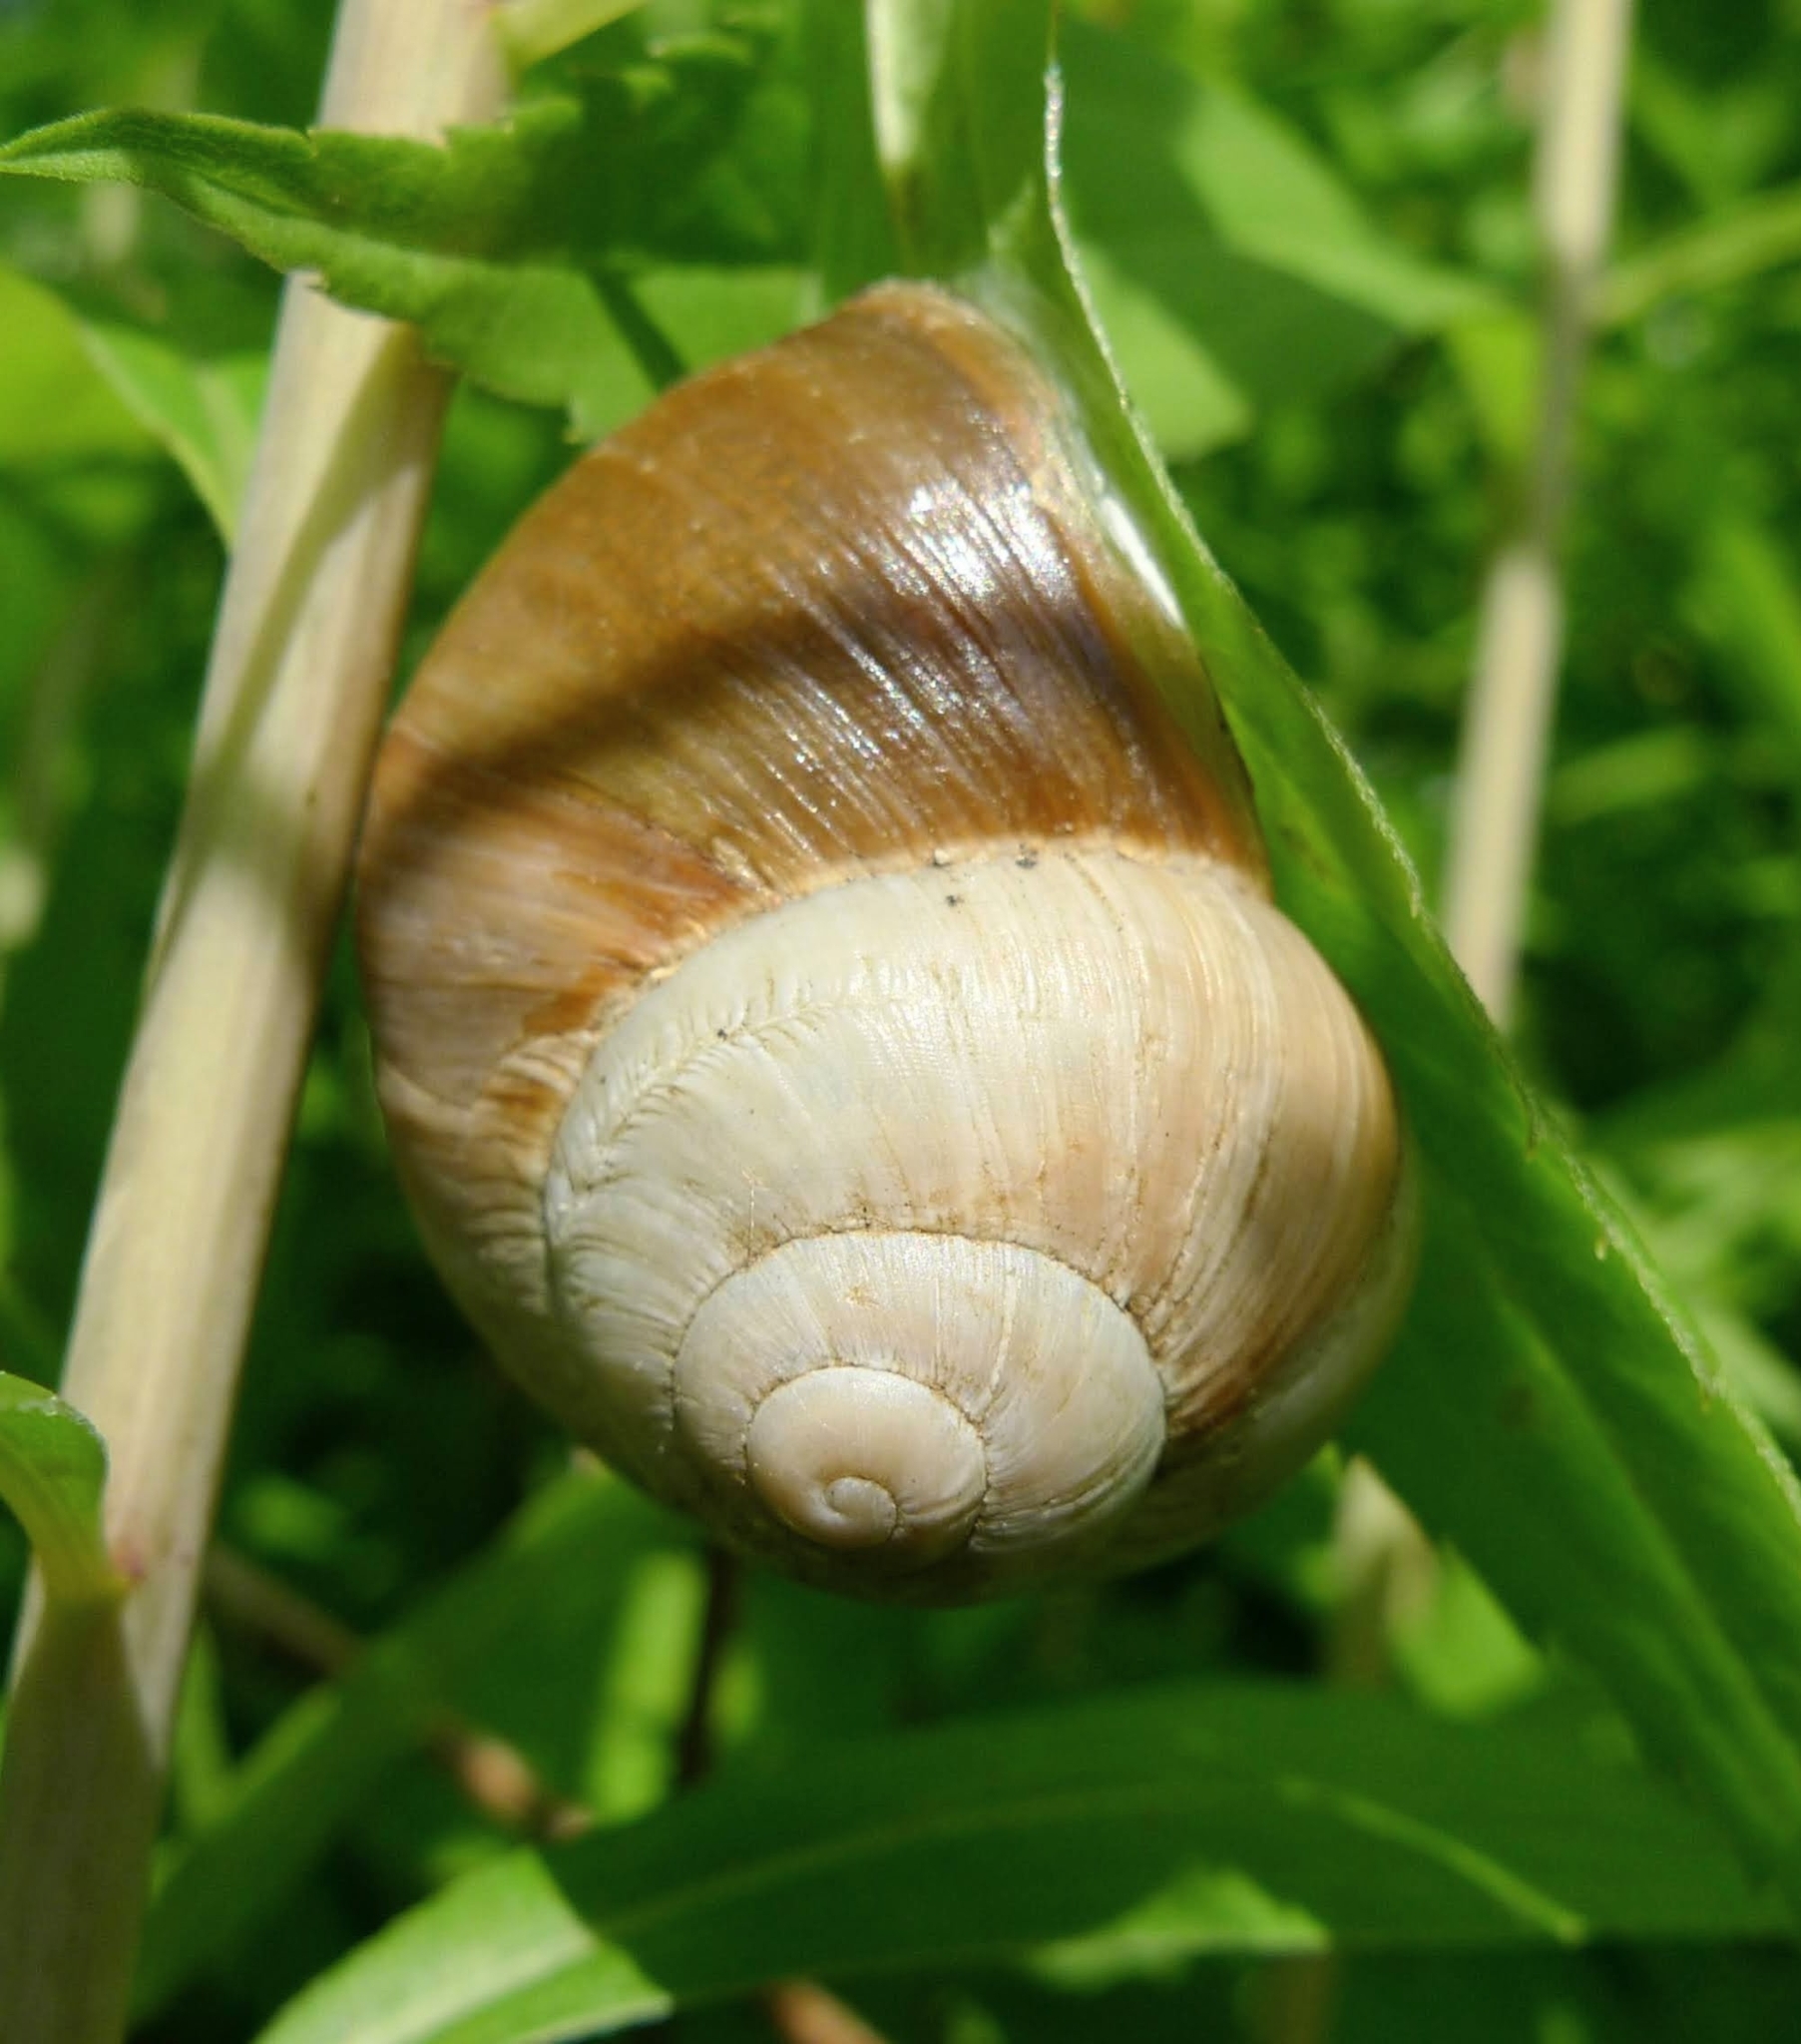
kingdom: Animalia
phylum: Mollusca
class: Gastropoda
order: Stylommatophora
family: Helicidae
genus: Helix
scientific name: Helix lutescens
